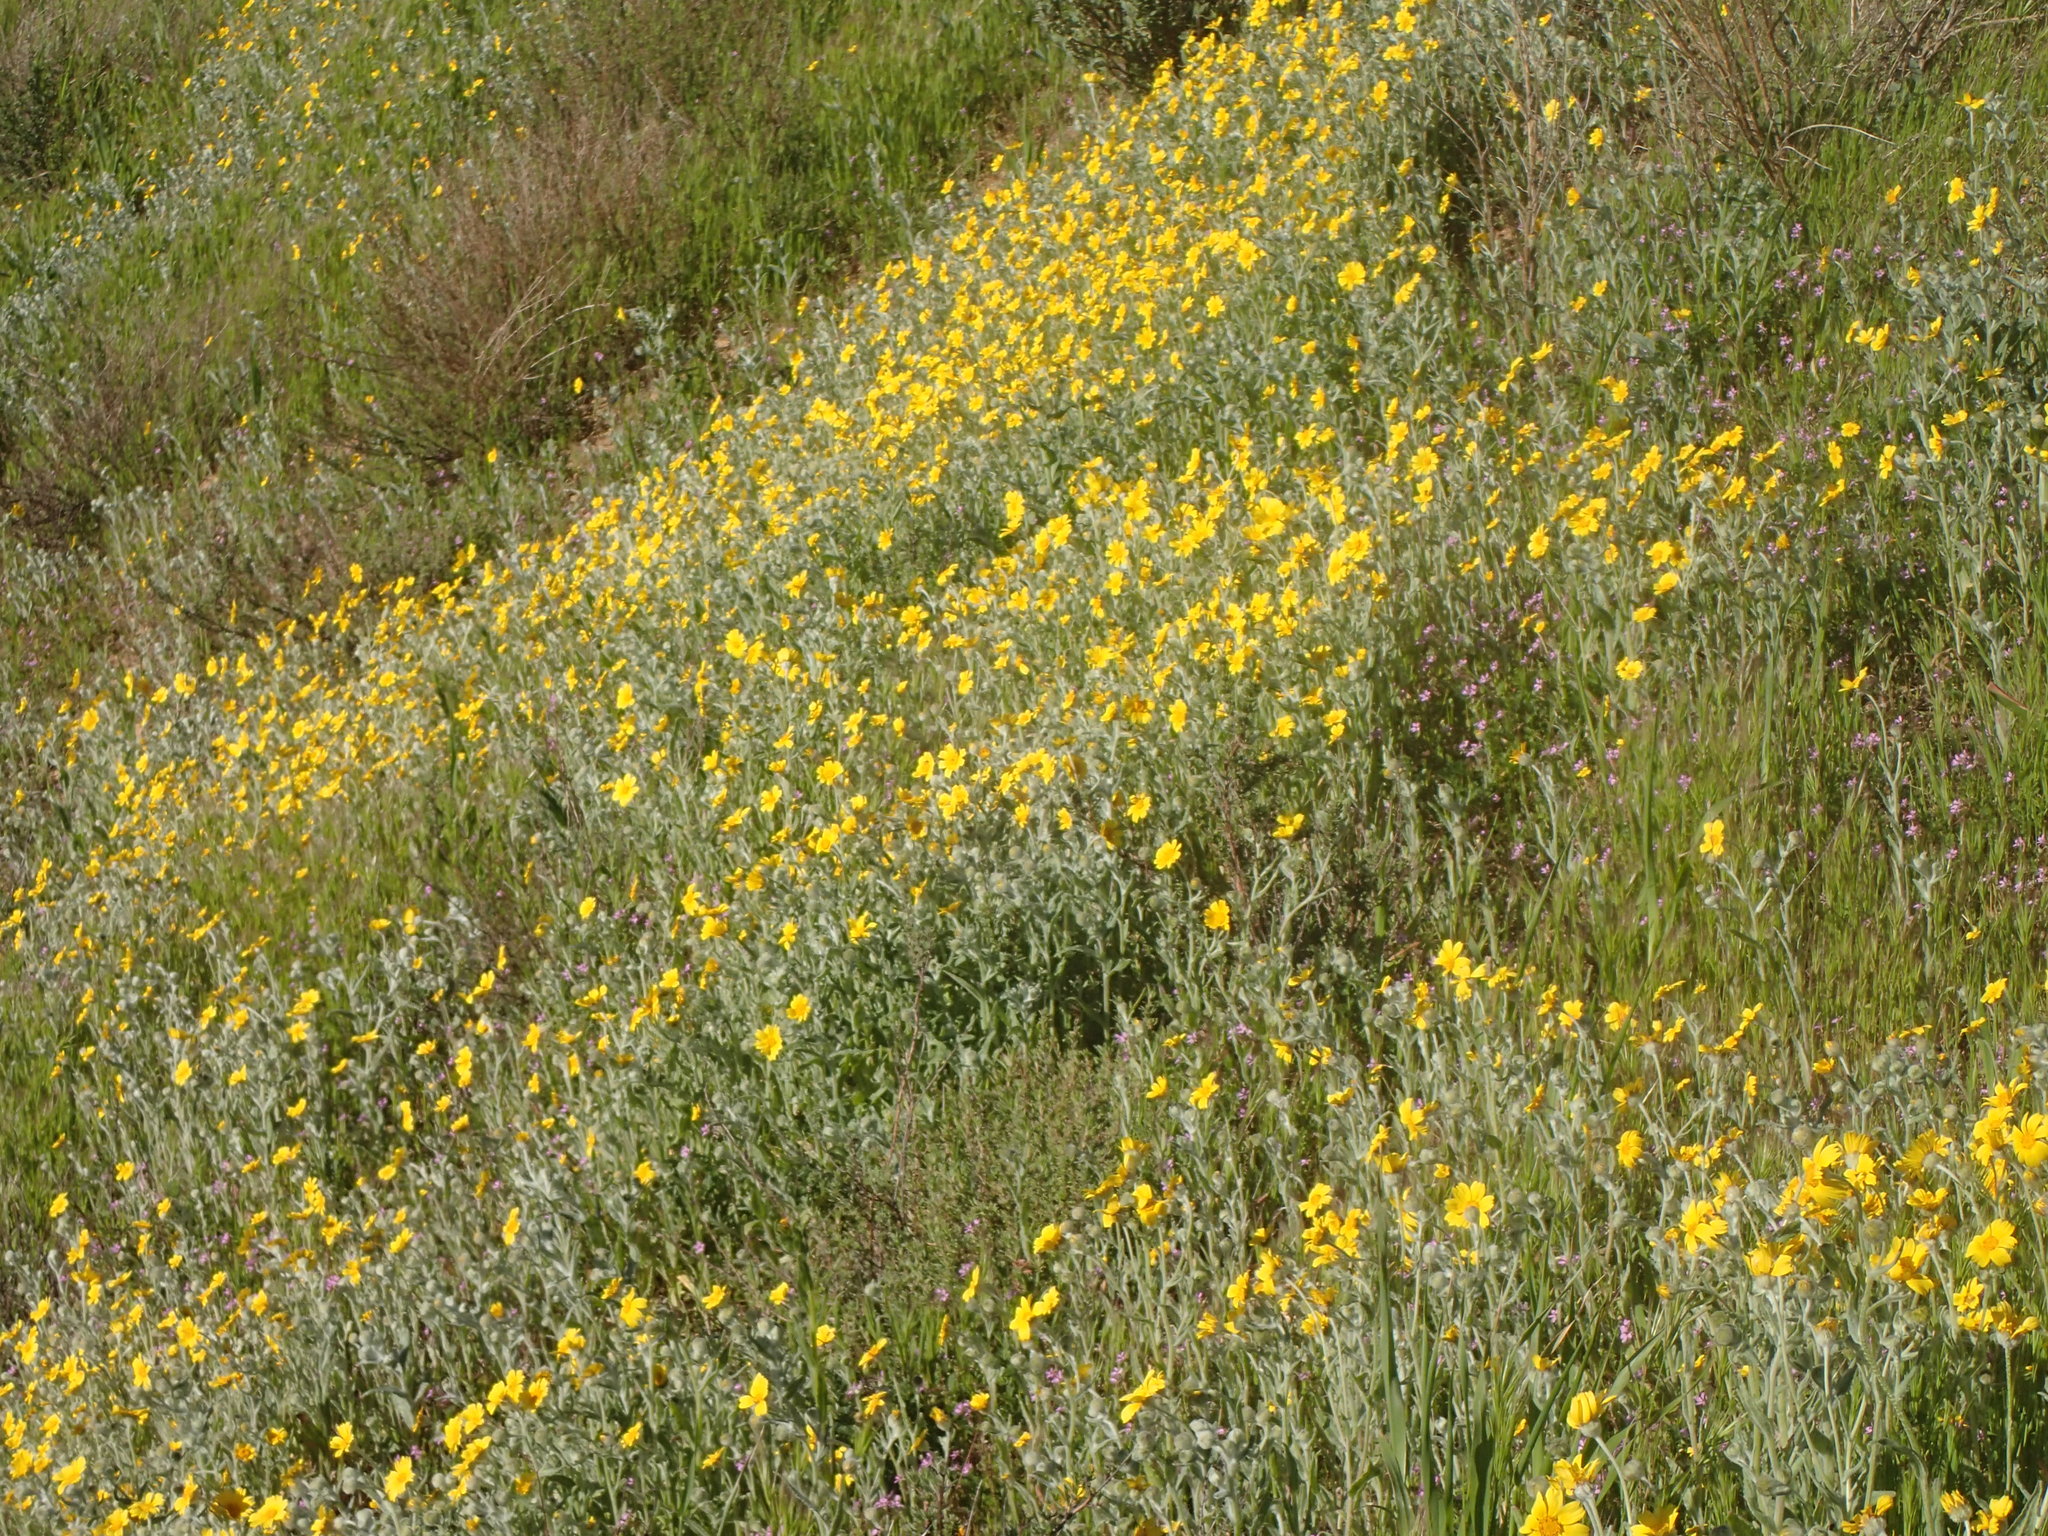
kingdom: Plantae
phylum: Tracheophyta
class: Magnoliopsida
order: Asterales
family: Asteraceae
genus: Monolopia
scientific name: Monolopia lanceolata
